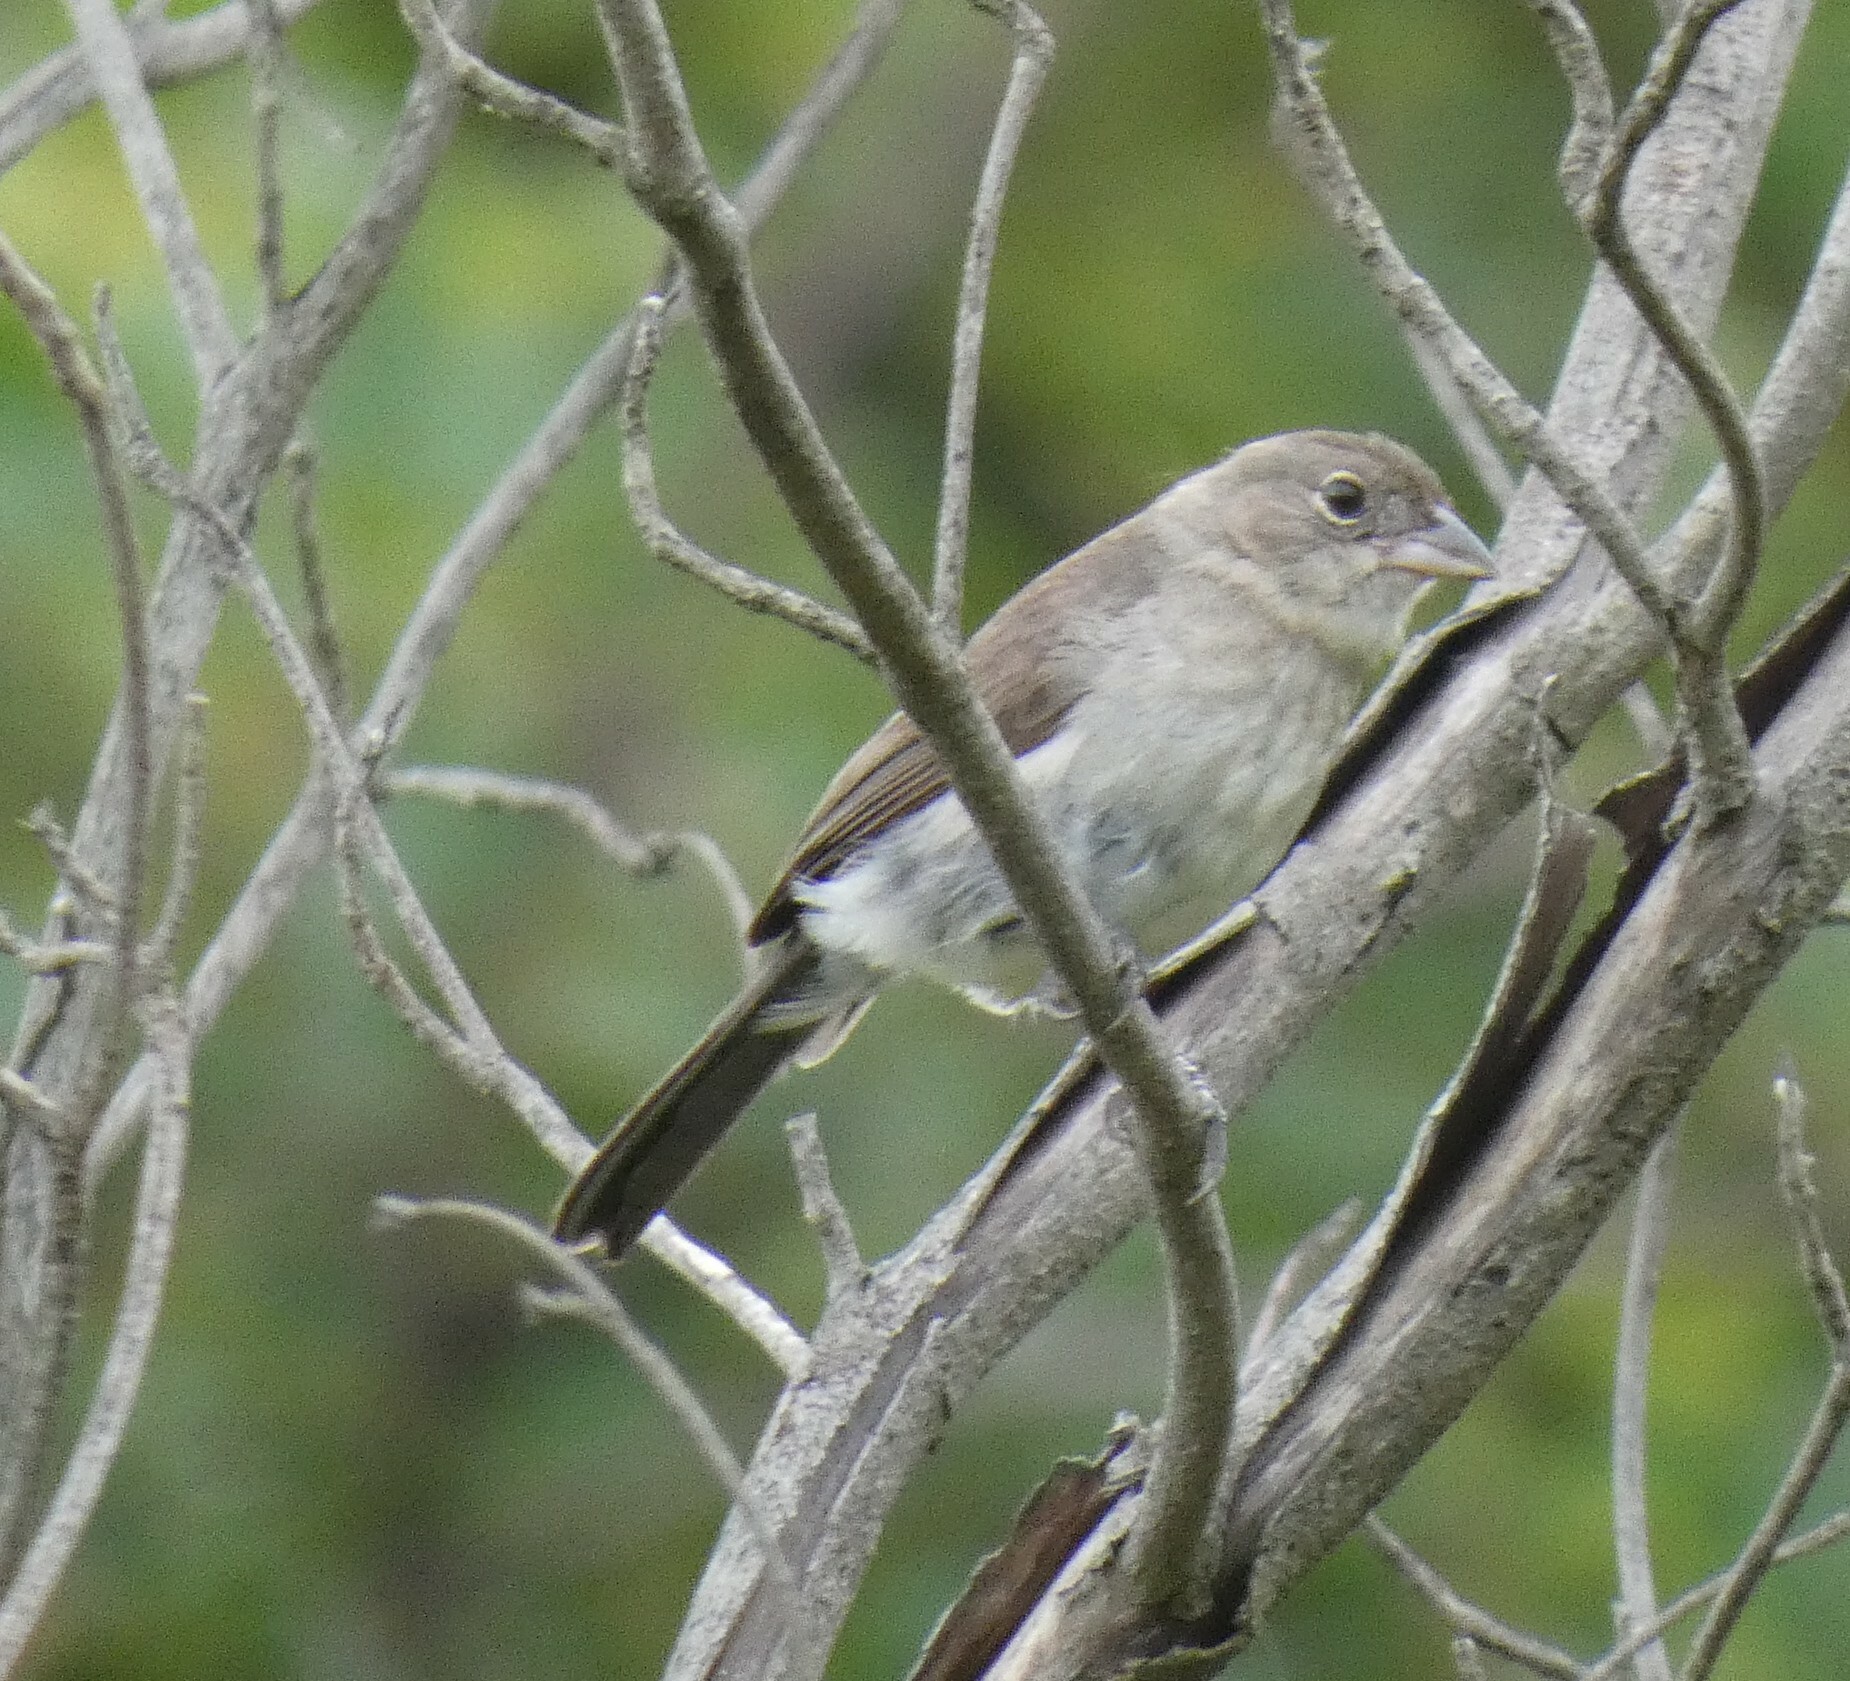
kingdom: Animalia
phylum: Chordata
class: Aves
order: Passeriformes
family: Thraupidae
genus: Coryphospingus
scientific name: Coryphospingus pileatus
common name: Grey pileated finch
